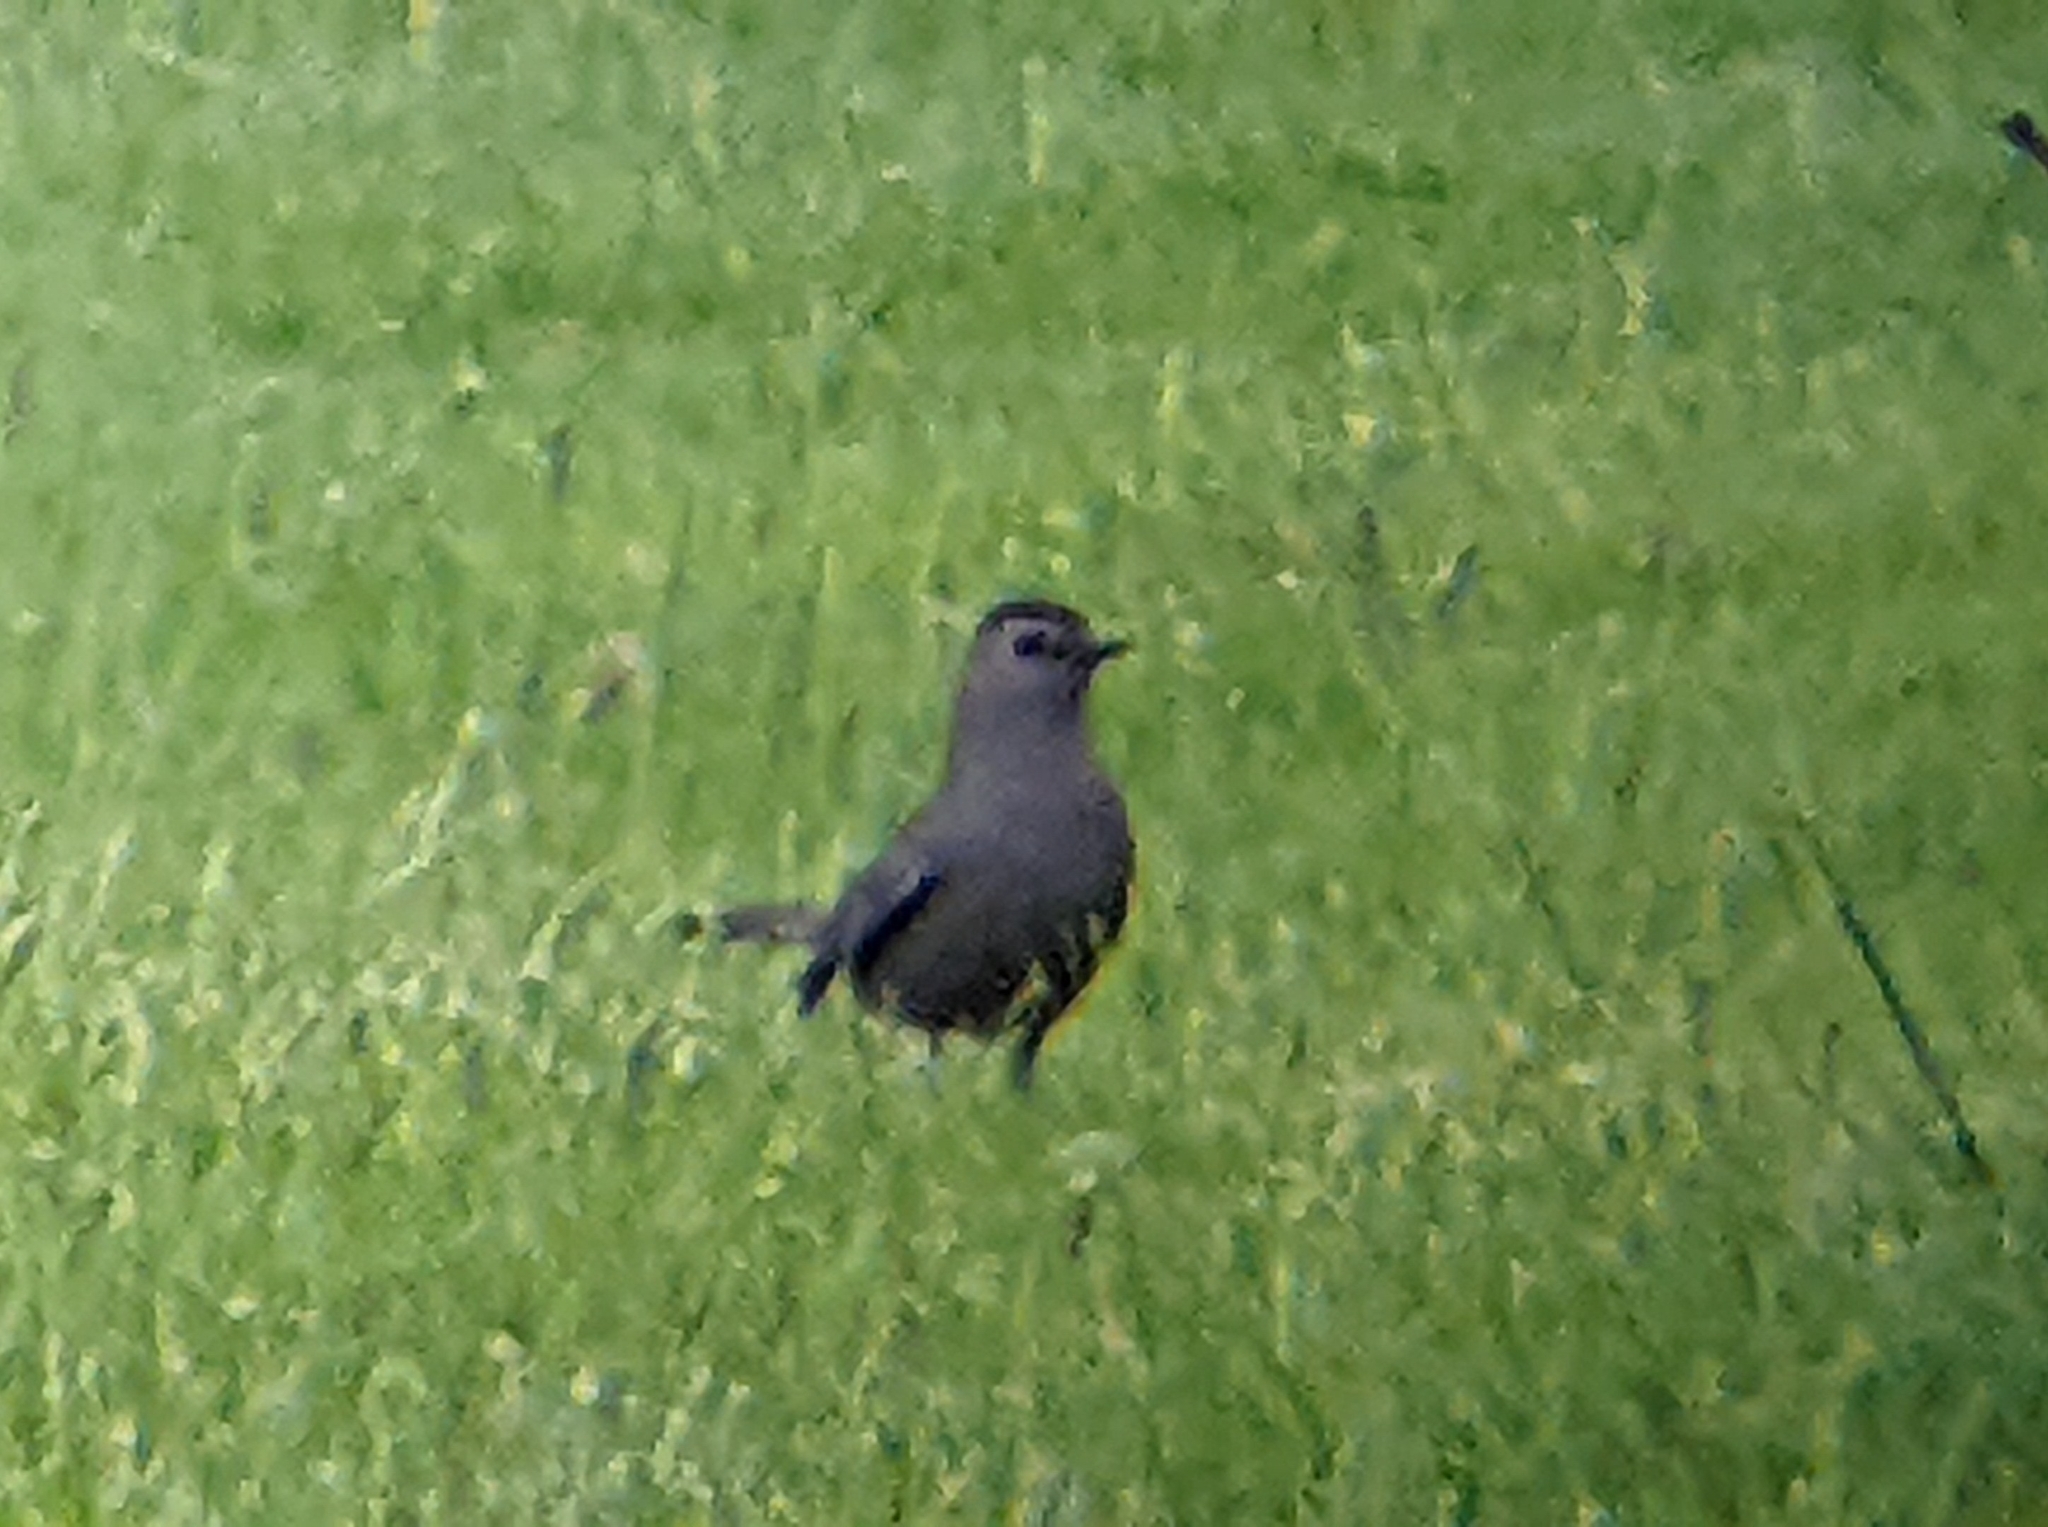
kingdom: Animalia
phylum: Chordata
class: Aves
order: Passeriformes
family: Mimidae
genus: Dumetella
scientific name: Dumetella carolinensis
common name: Gray catbird
